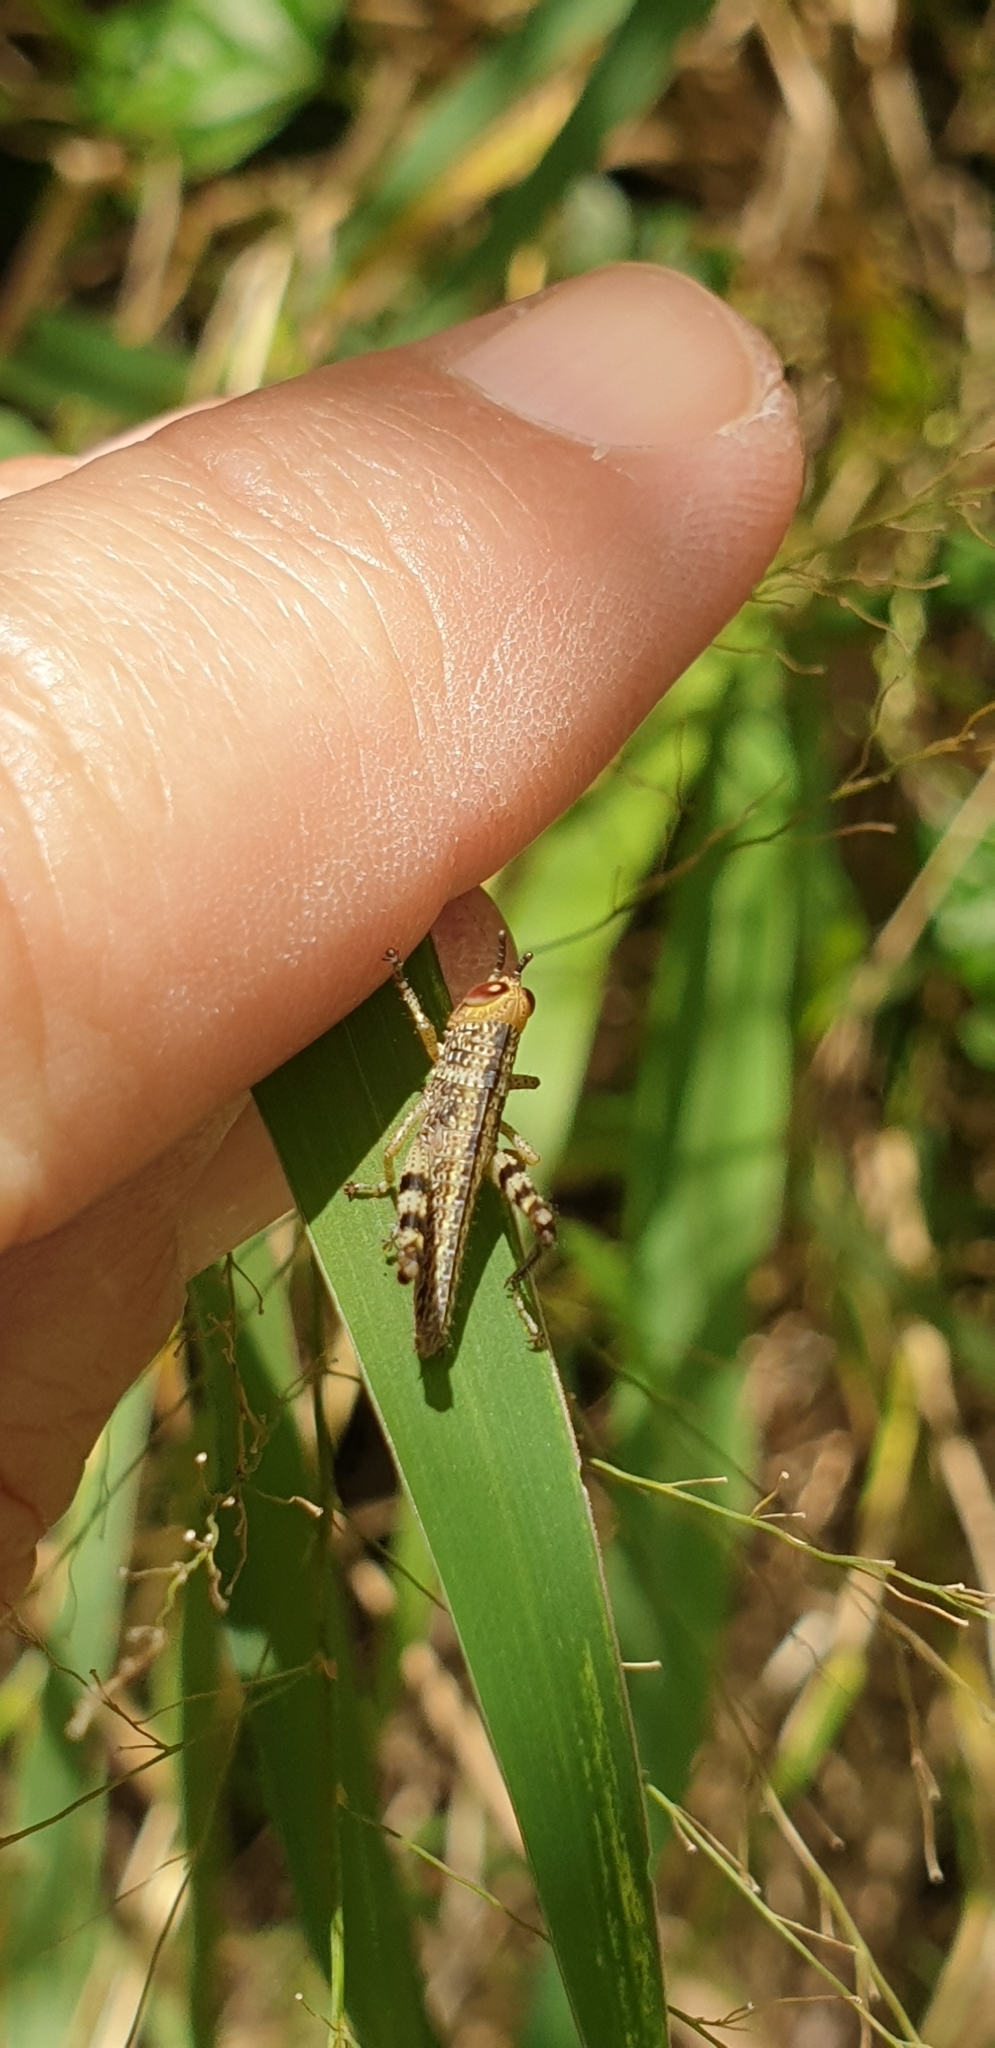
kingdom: Animalia
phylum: Arthropoda
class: Insecta
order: Orthoptera
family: Acrididae
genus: Valanga
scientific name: Valanga irregularis
